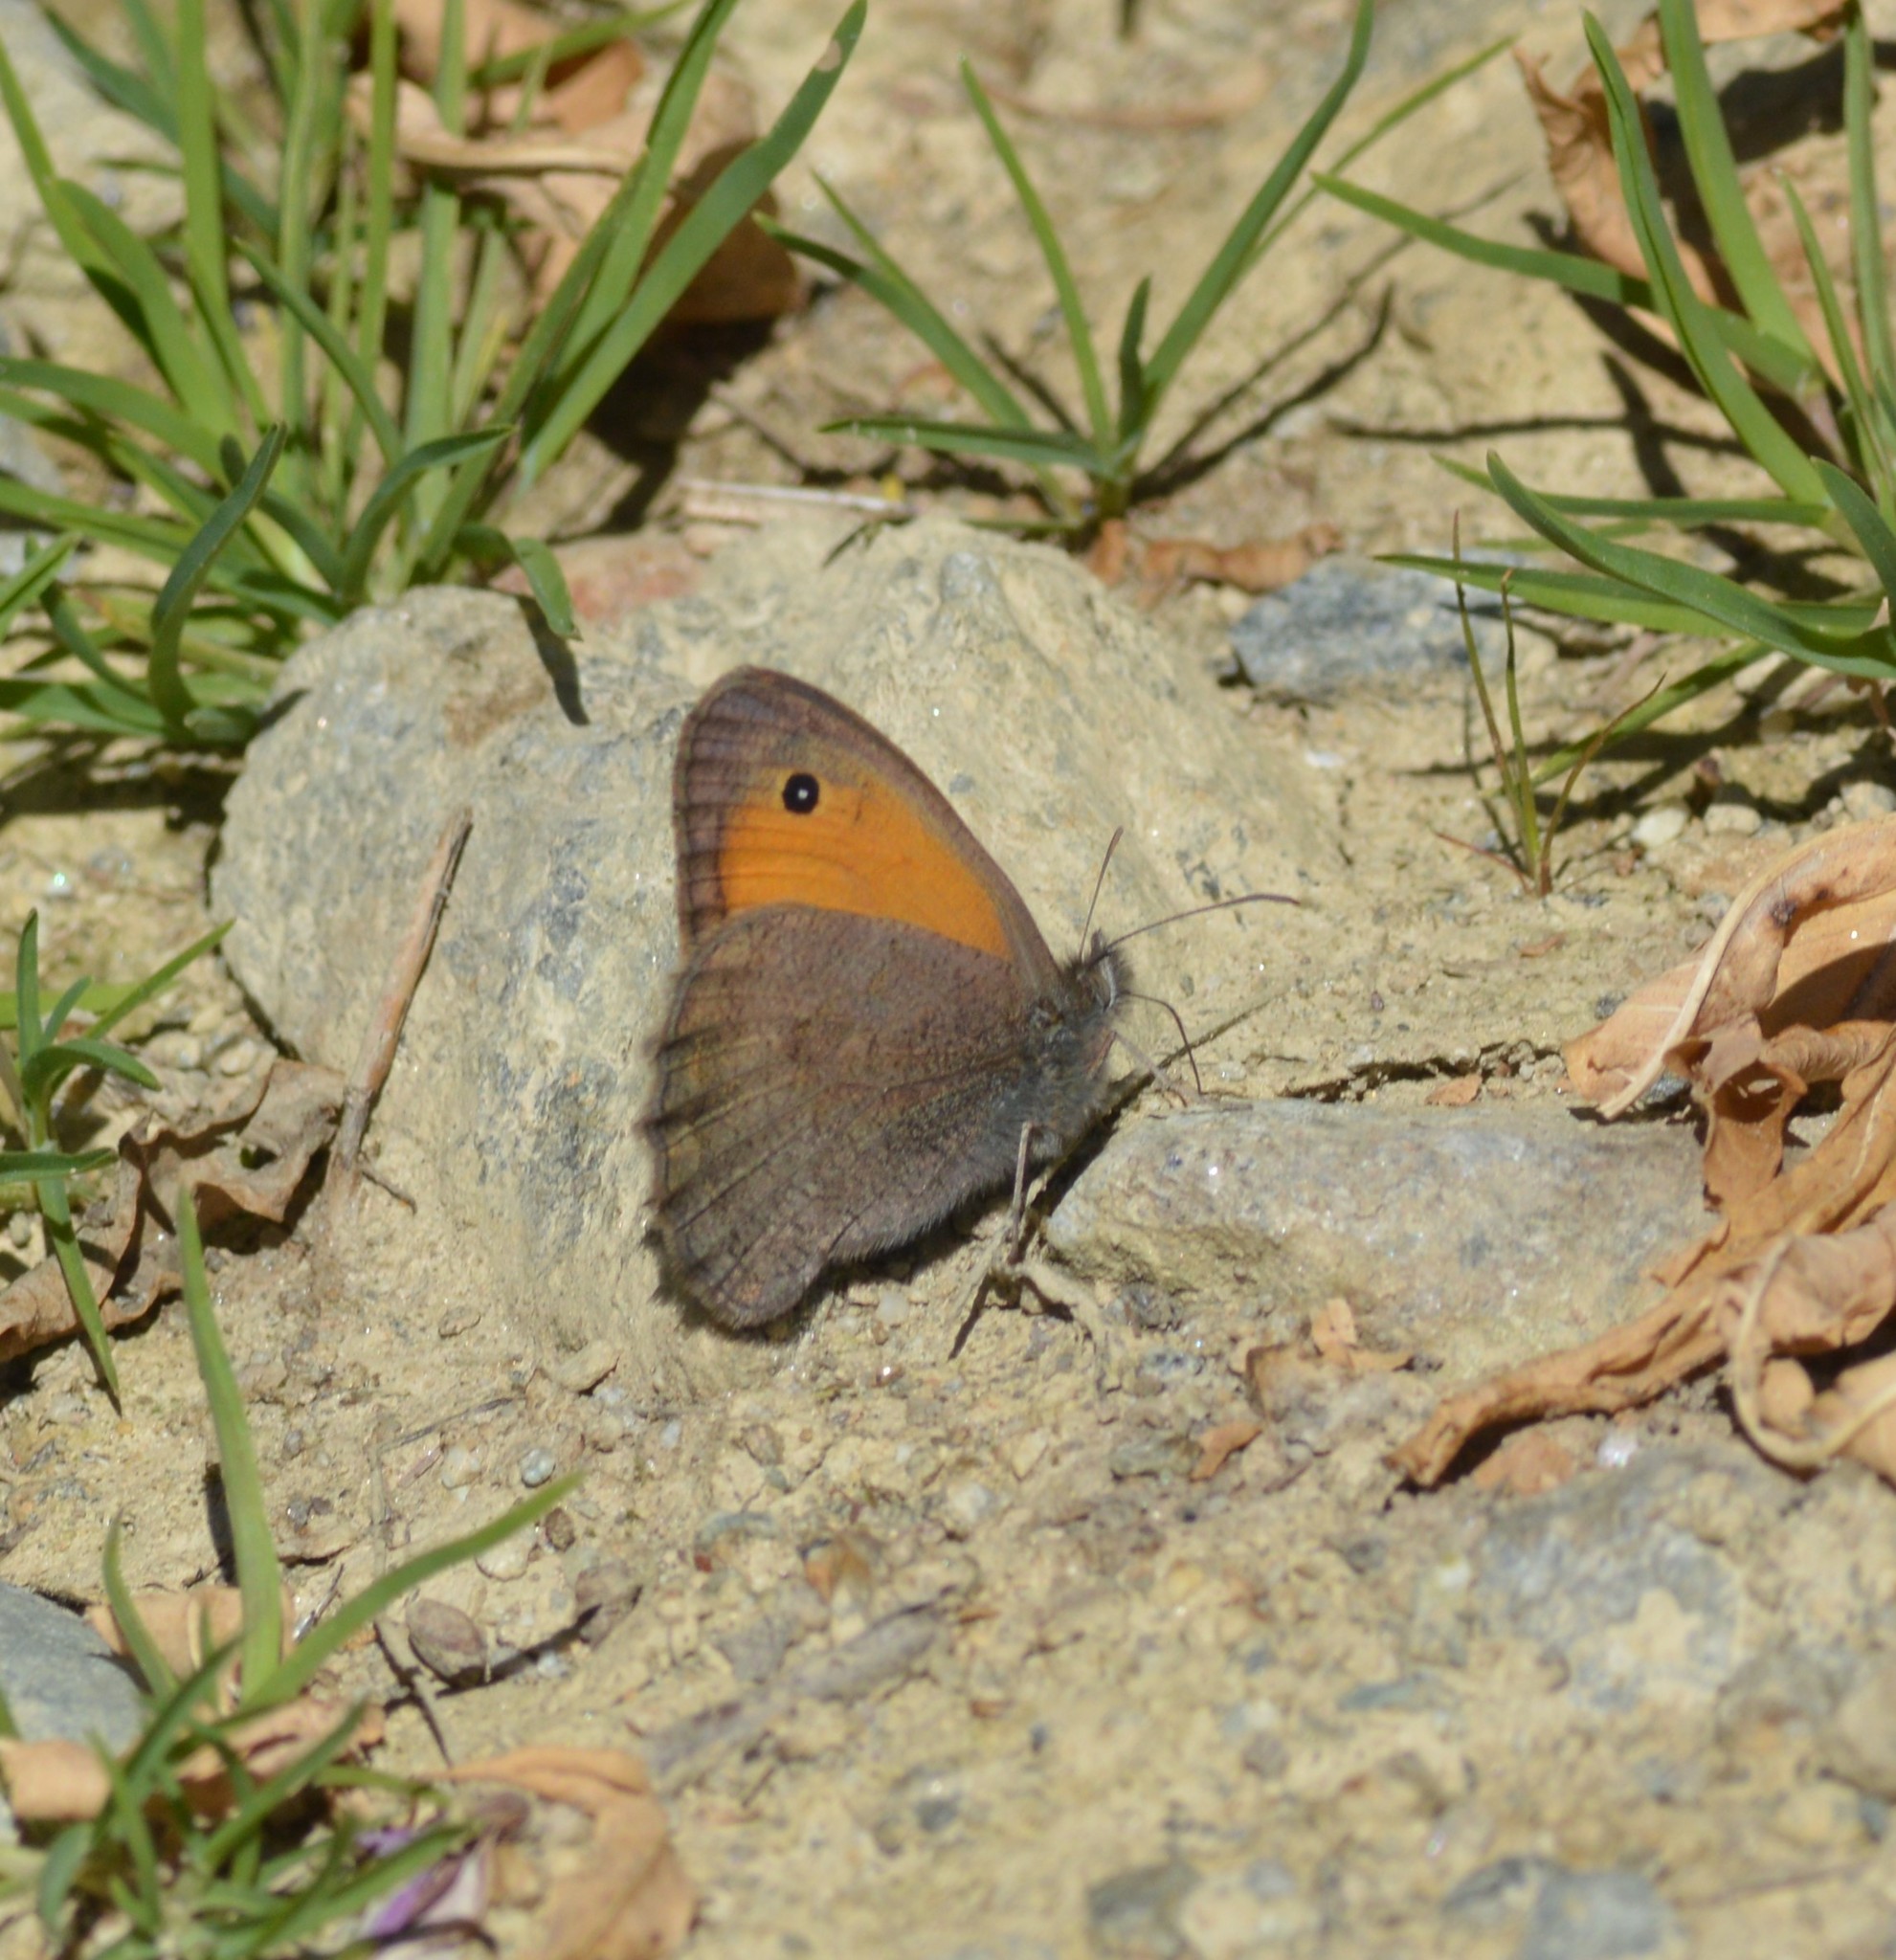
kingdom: Animalia
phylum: Arthropoda
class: Insecta
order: Lepidoptera
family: Nymphalidae
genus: Hyponephele
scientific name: Hyponephele lycaon
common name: Dusky meadow brown
